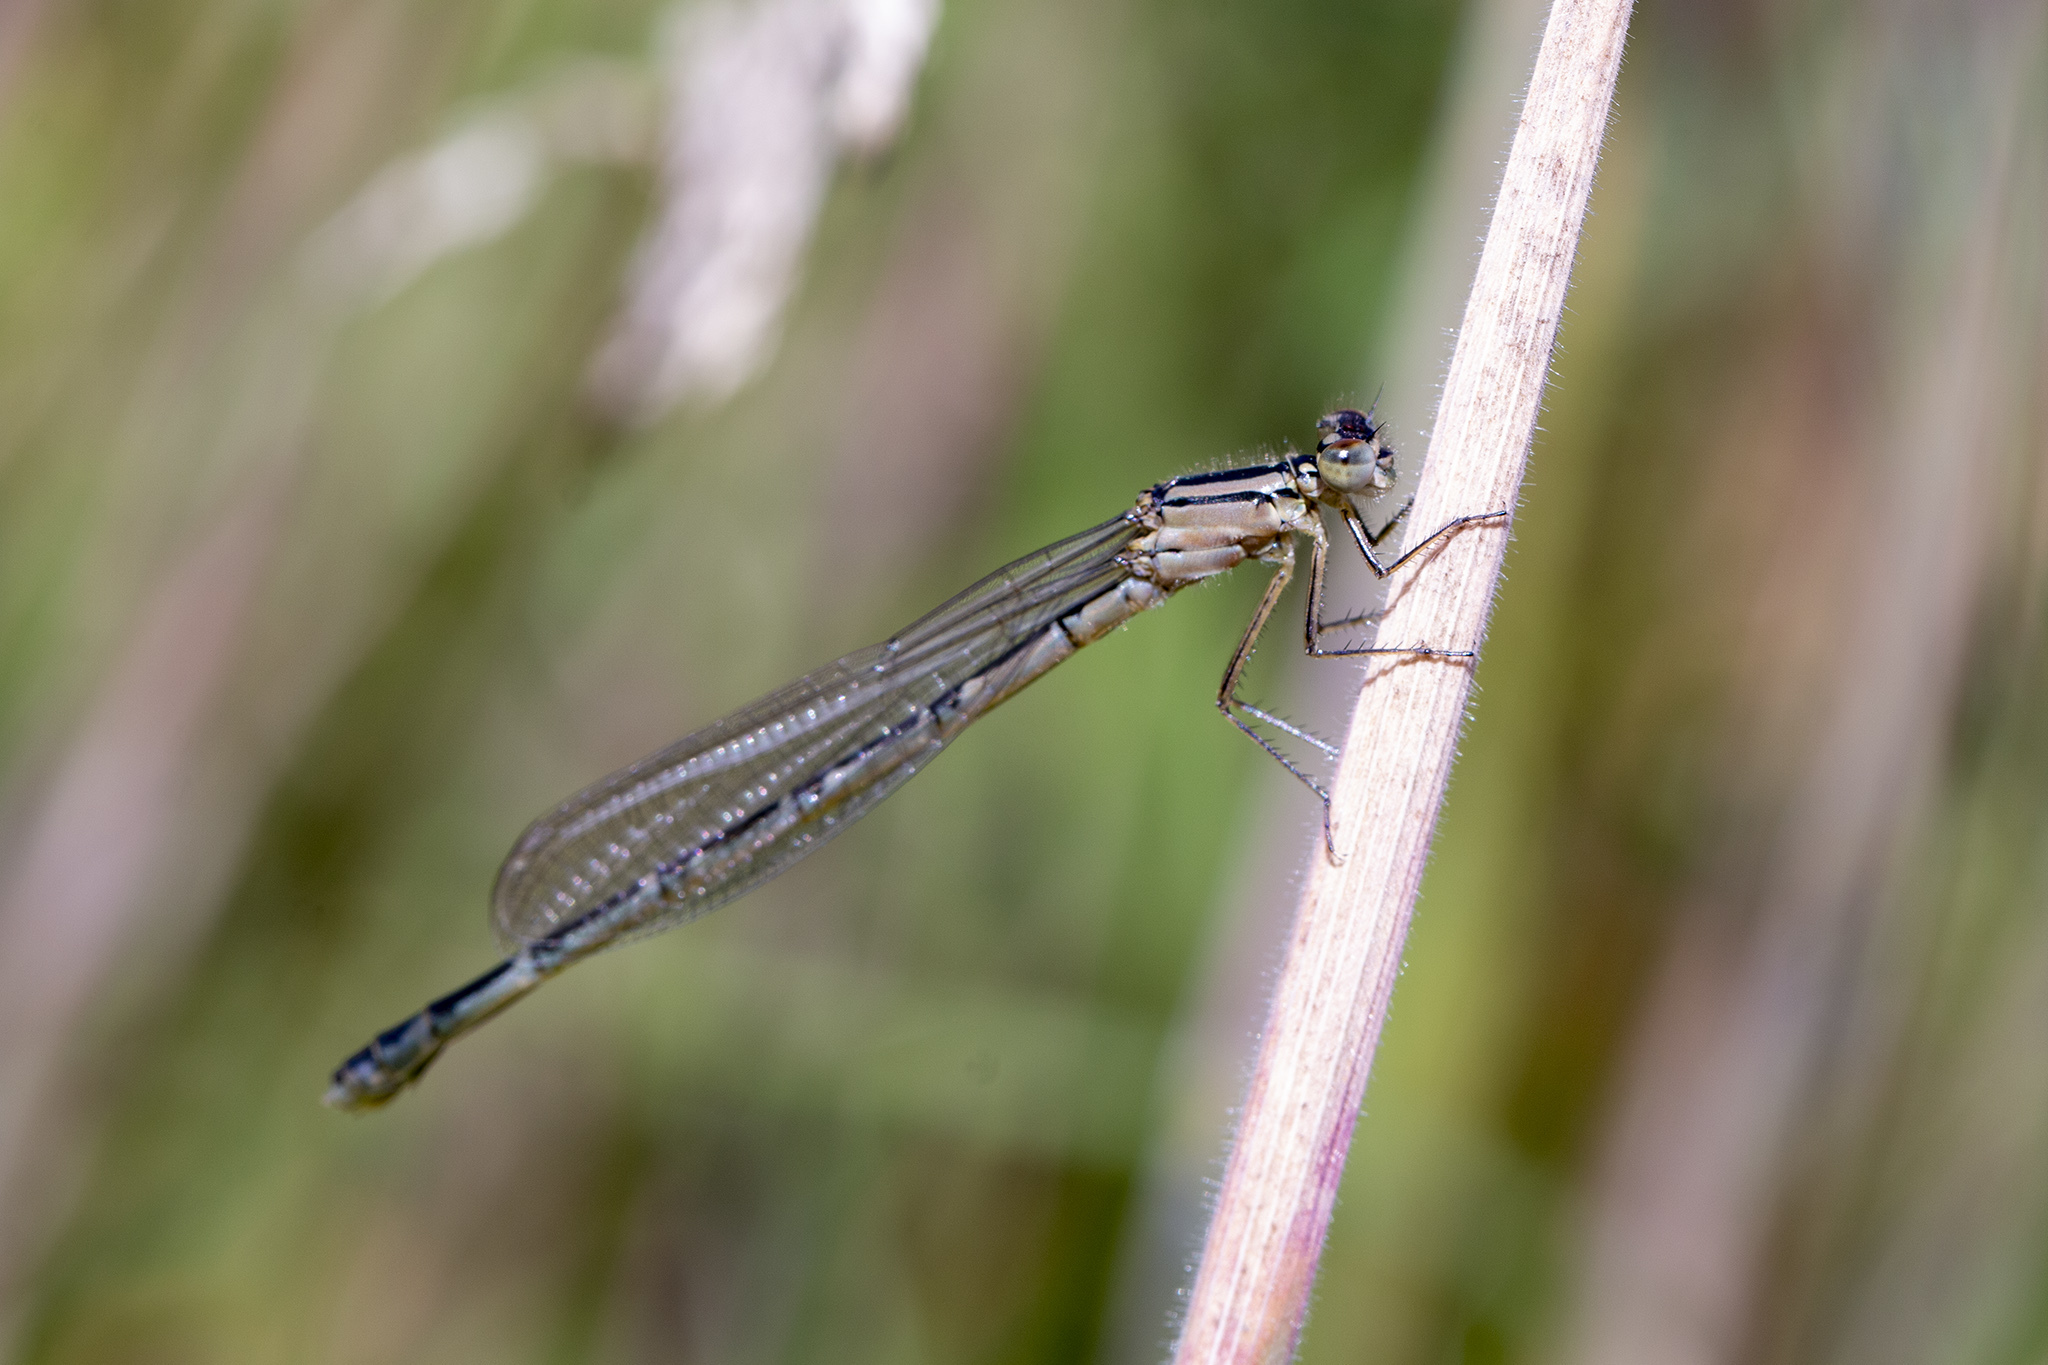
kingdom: Animalia
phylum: Arthropoda
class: Insecta
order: Odonata
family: Coenagrionidae
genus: Enallagma
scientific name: Enallagma cyathigerum
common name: Common blue damselfly
